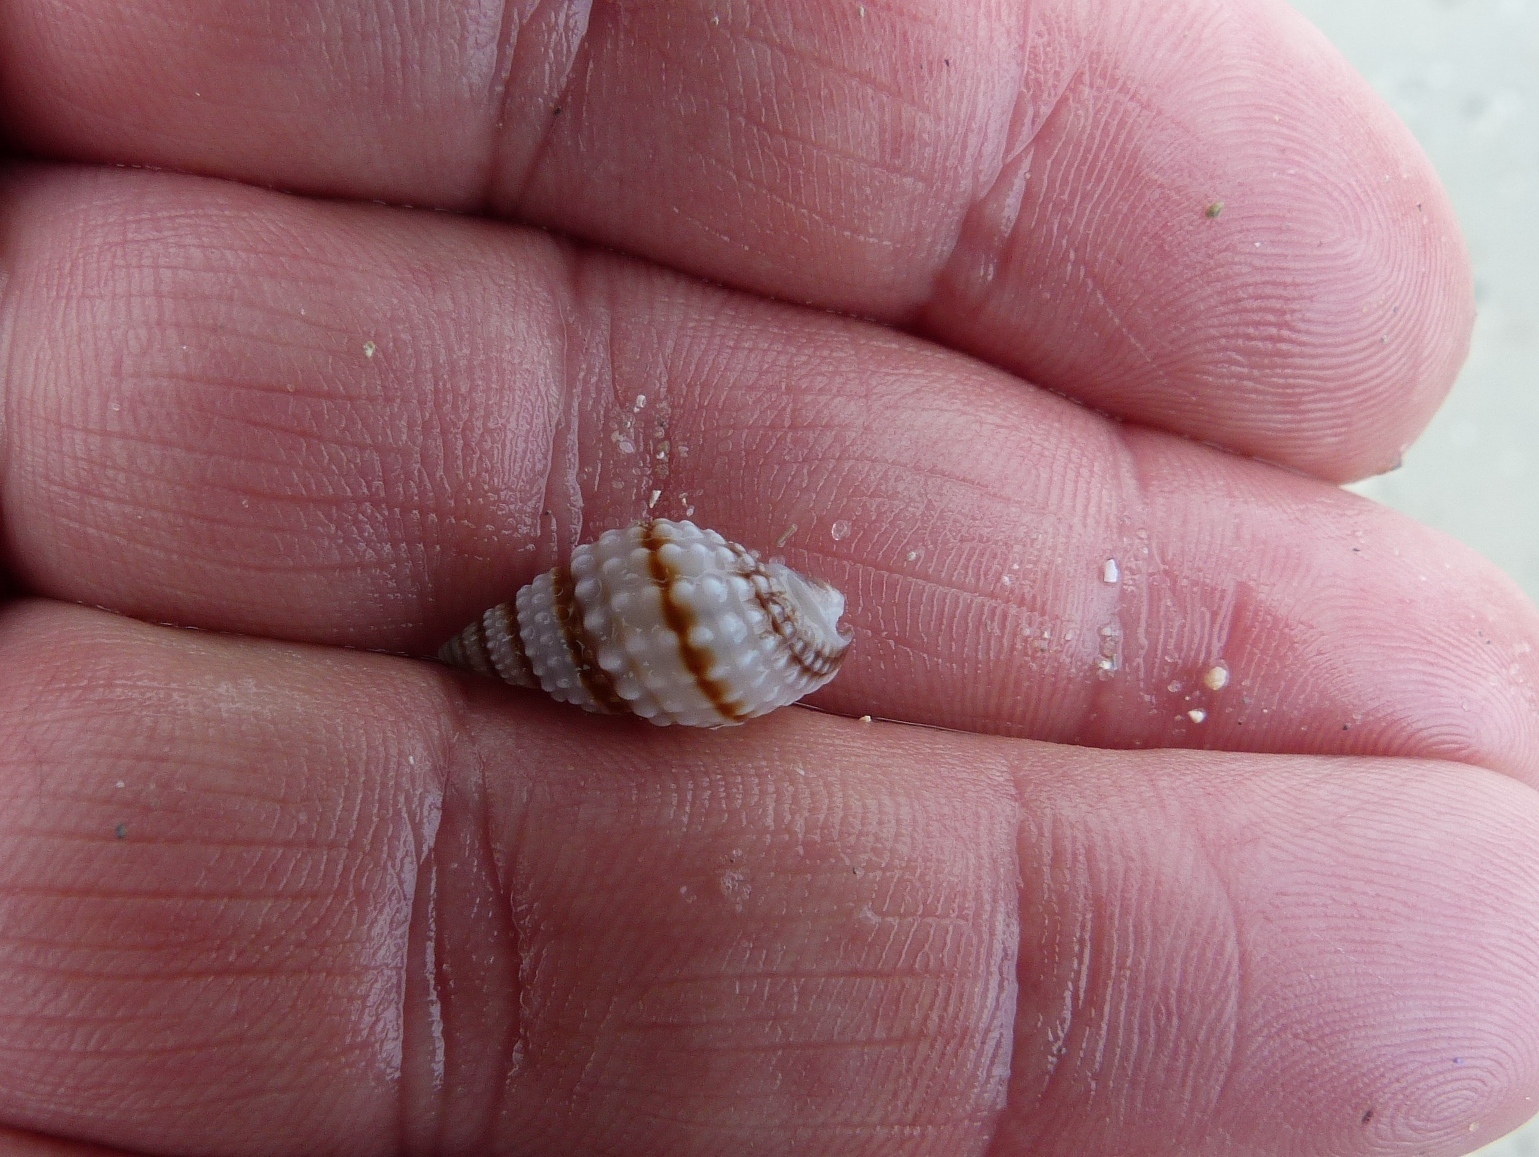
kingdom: Animalia
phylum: Mollusca
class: Gastropoda
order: Neogastropoda
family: Nassariidae
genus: Nassarius
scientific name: Nassarius pyrrhus
